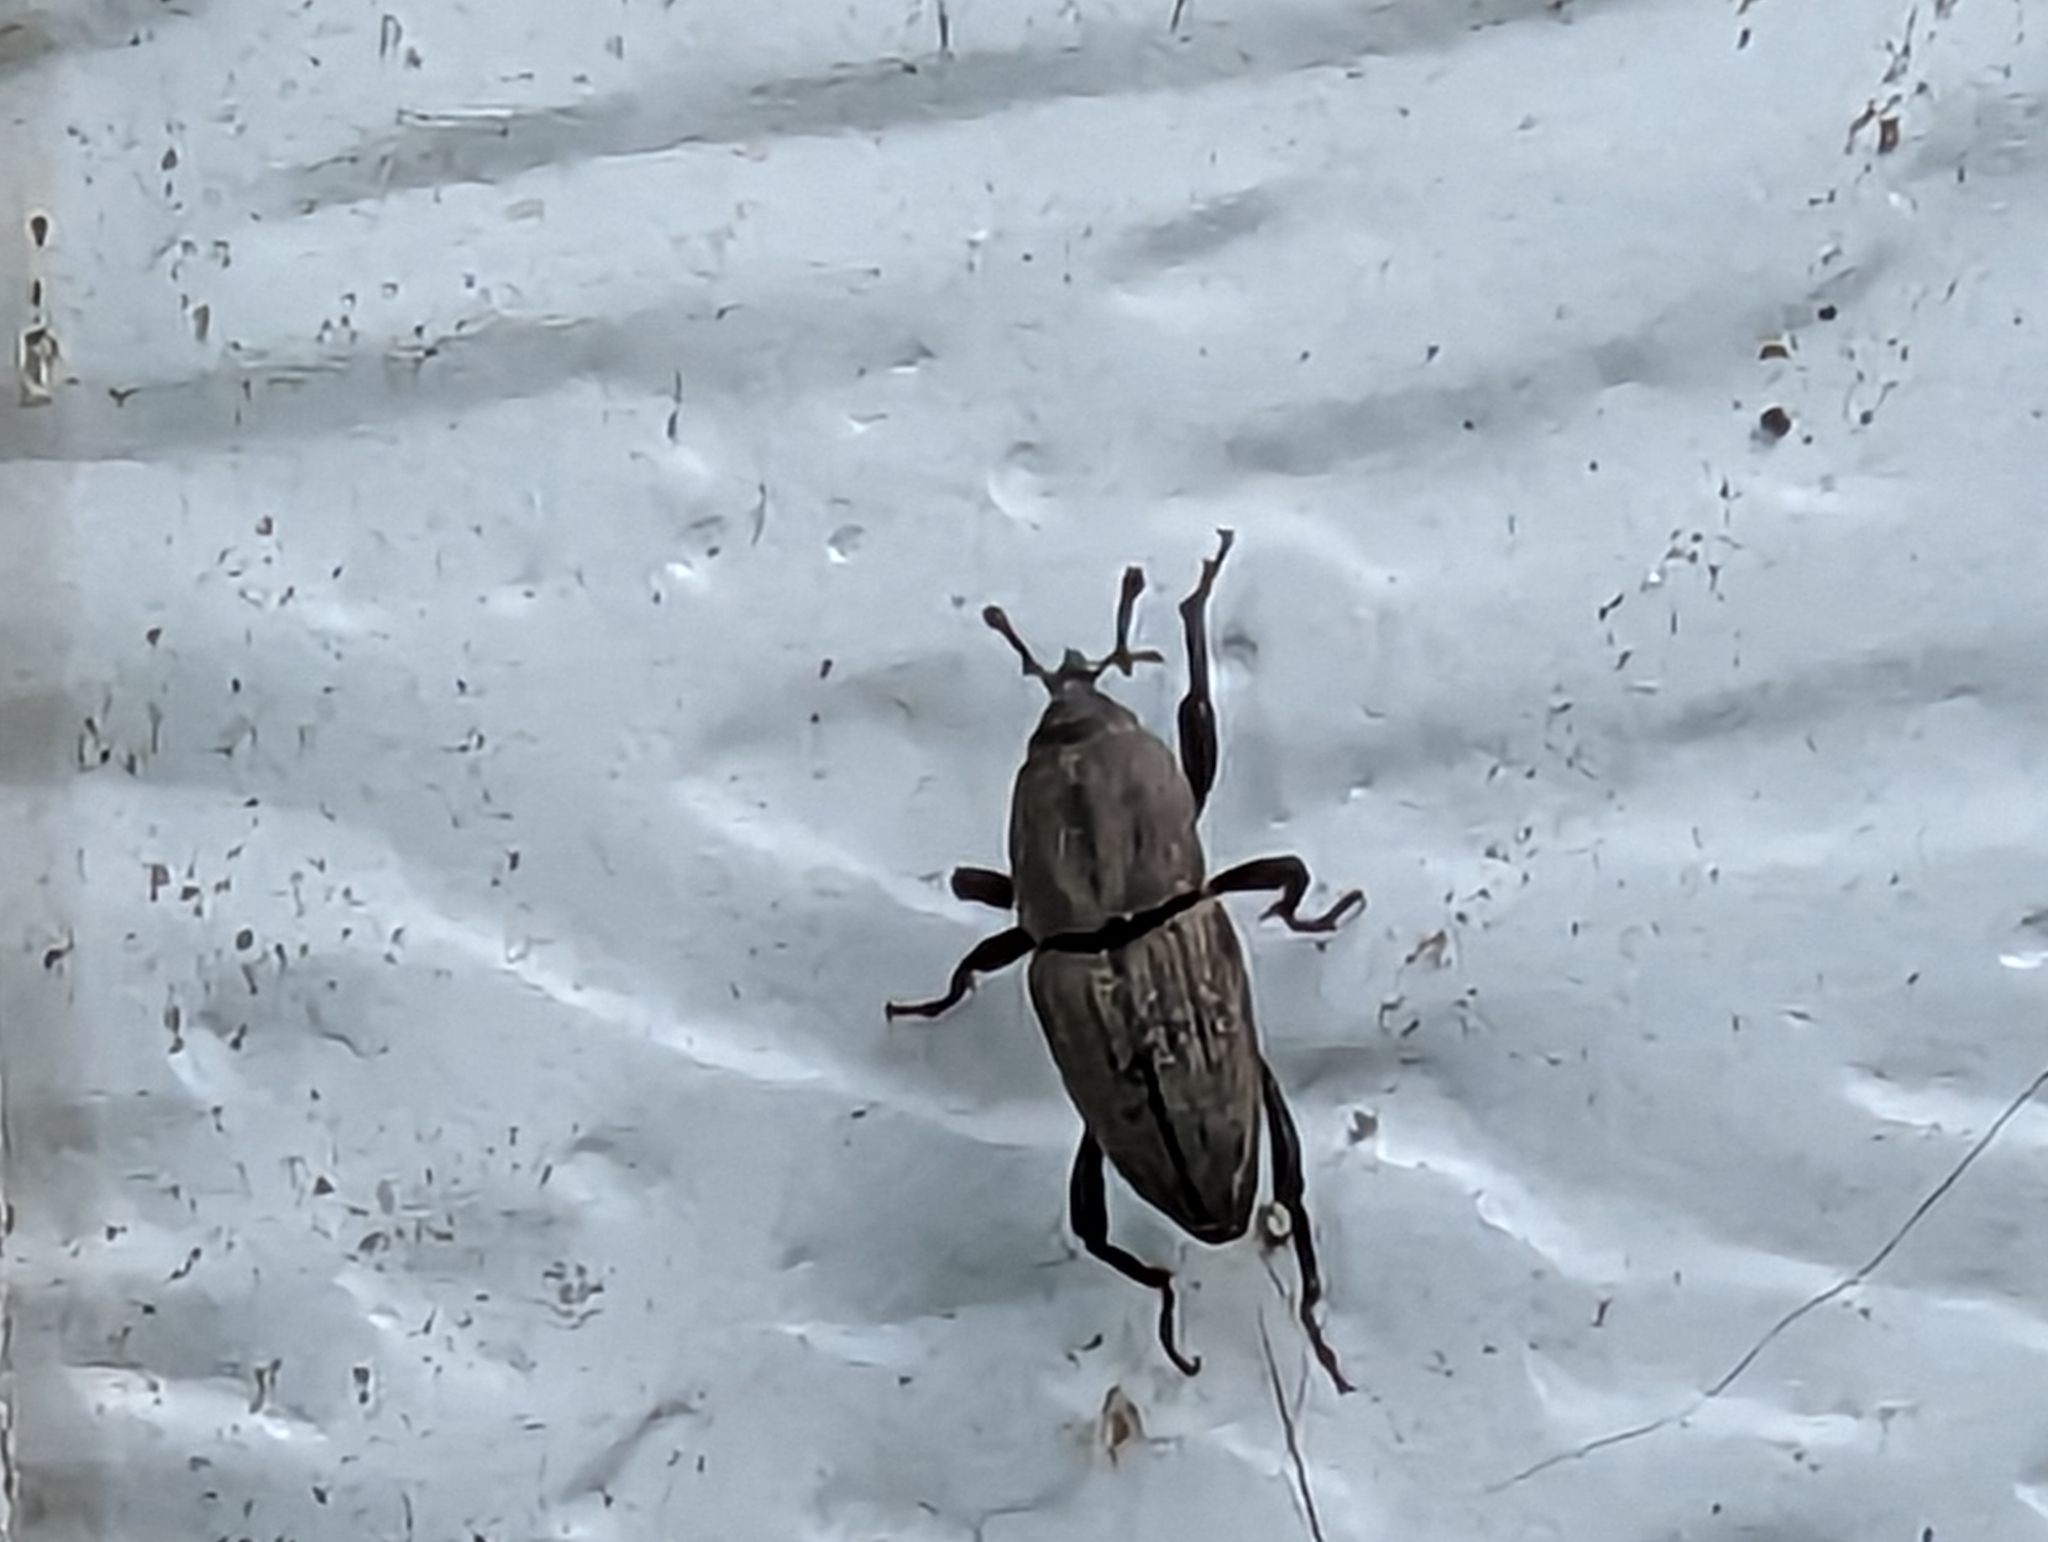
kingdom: Animalia
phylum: Arthropoda
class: Insecta
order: Coleoptera
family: Dryophthoridae
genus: Sphenophorus
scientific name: Sphenophorus interstitialis
